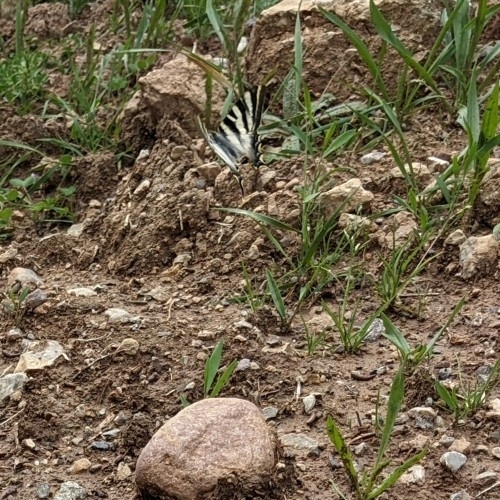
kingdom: Animalia
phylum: Arthropoda
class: Insecta
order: Lepidoptera
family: Papilionidae
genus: Iphiclides
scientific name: Iphiclides feisthamelii
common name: Iberian scarce swallowtail
